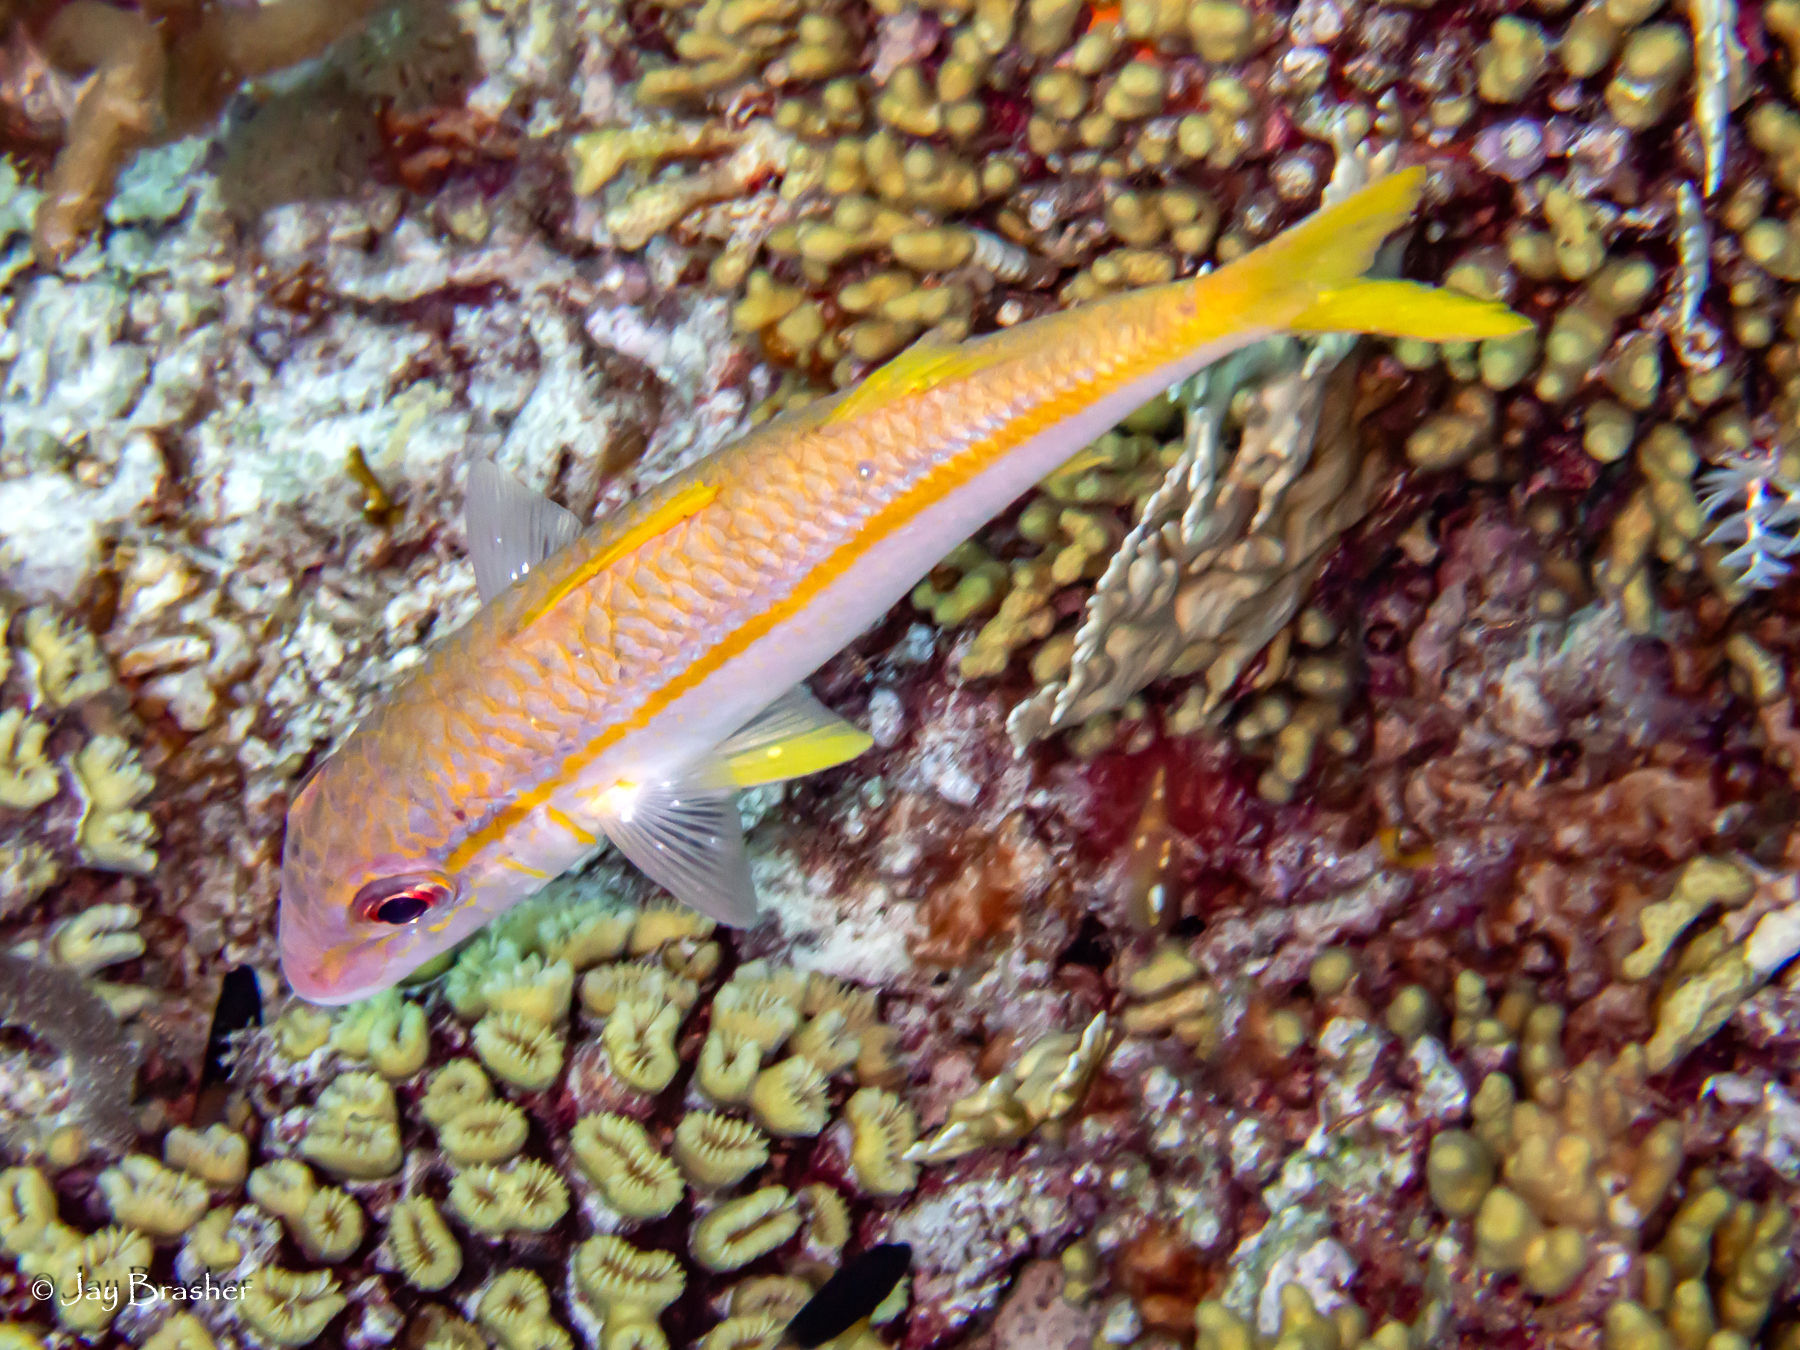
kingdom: Animalia
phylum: Chordata
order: Perciformes
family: Mullidae
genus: Mulloidichthys
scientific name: Mulloidichthys martinicus
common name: Yellow goatfish
